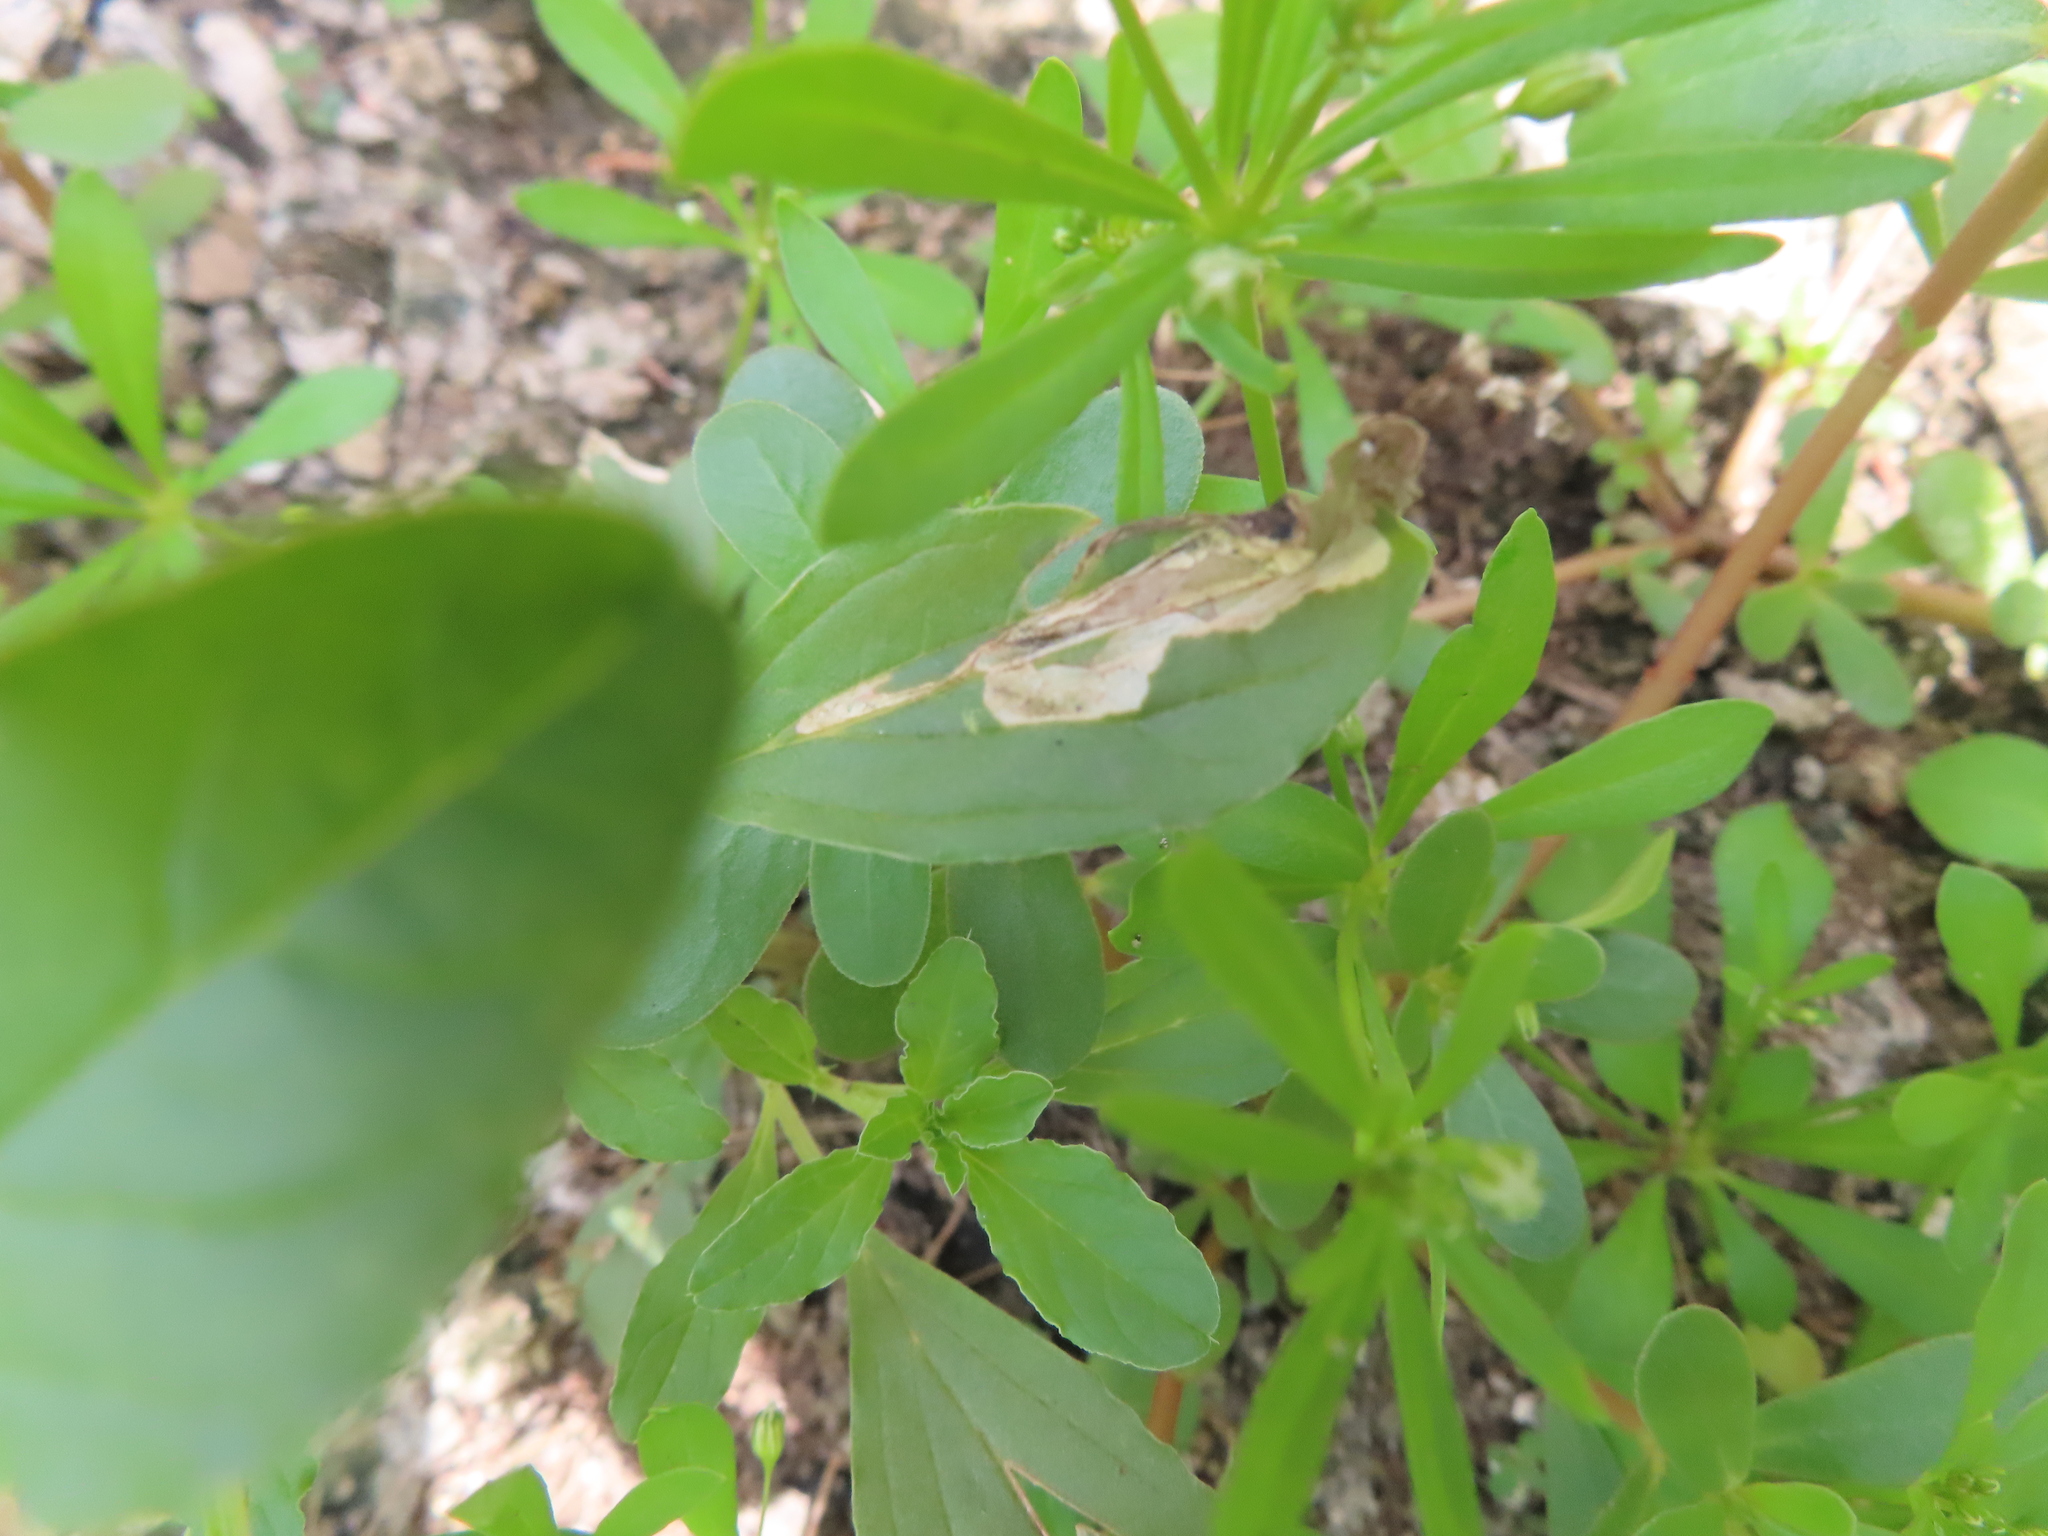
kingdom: Animalia
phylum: Arthropoda
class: Insecta
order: Diptera
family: Anthomyiidae
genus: Pegomya
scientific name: Pegomya wygodzinskyi
